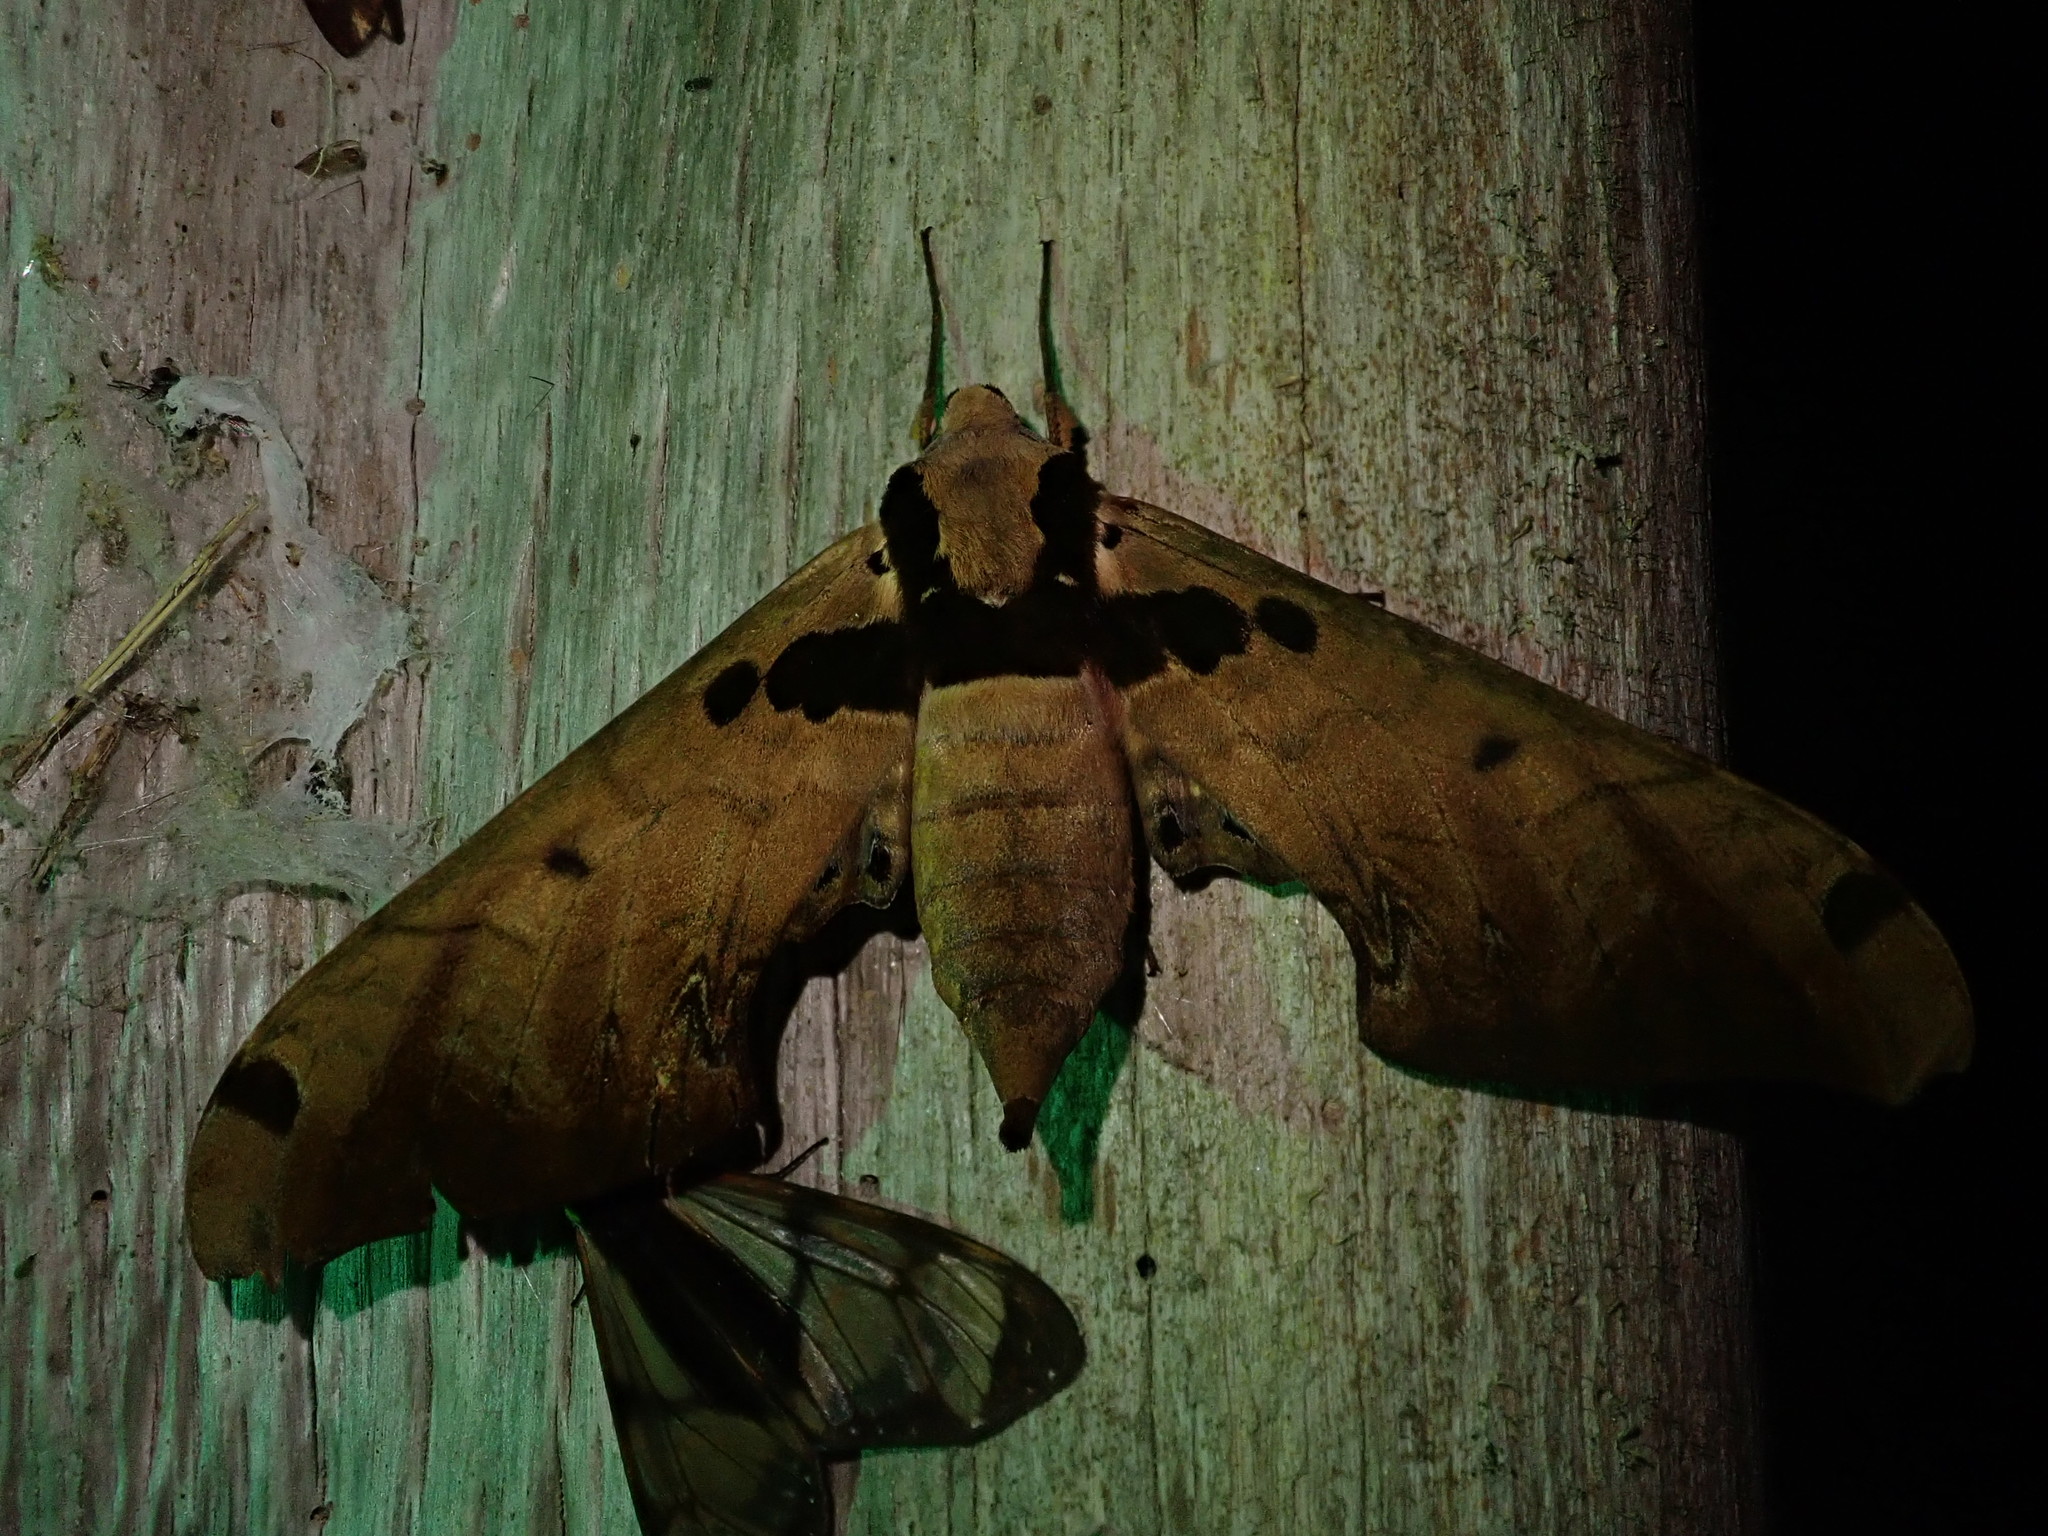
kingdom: Animalia
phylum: Arthropoda
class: Insecta
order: Lepidoptera
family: Sphingidae
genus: Adhemarius
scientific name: Adhemarius daphne
